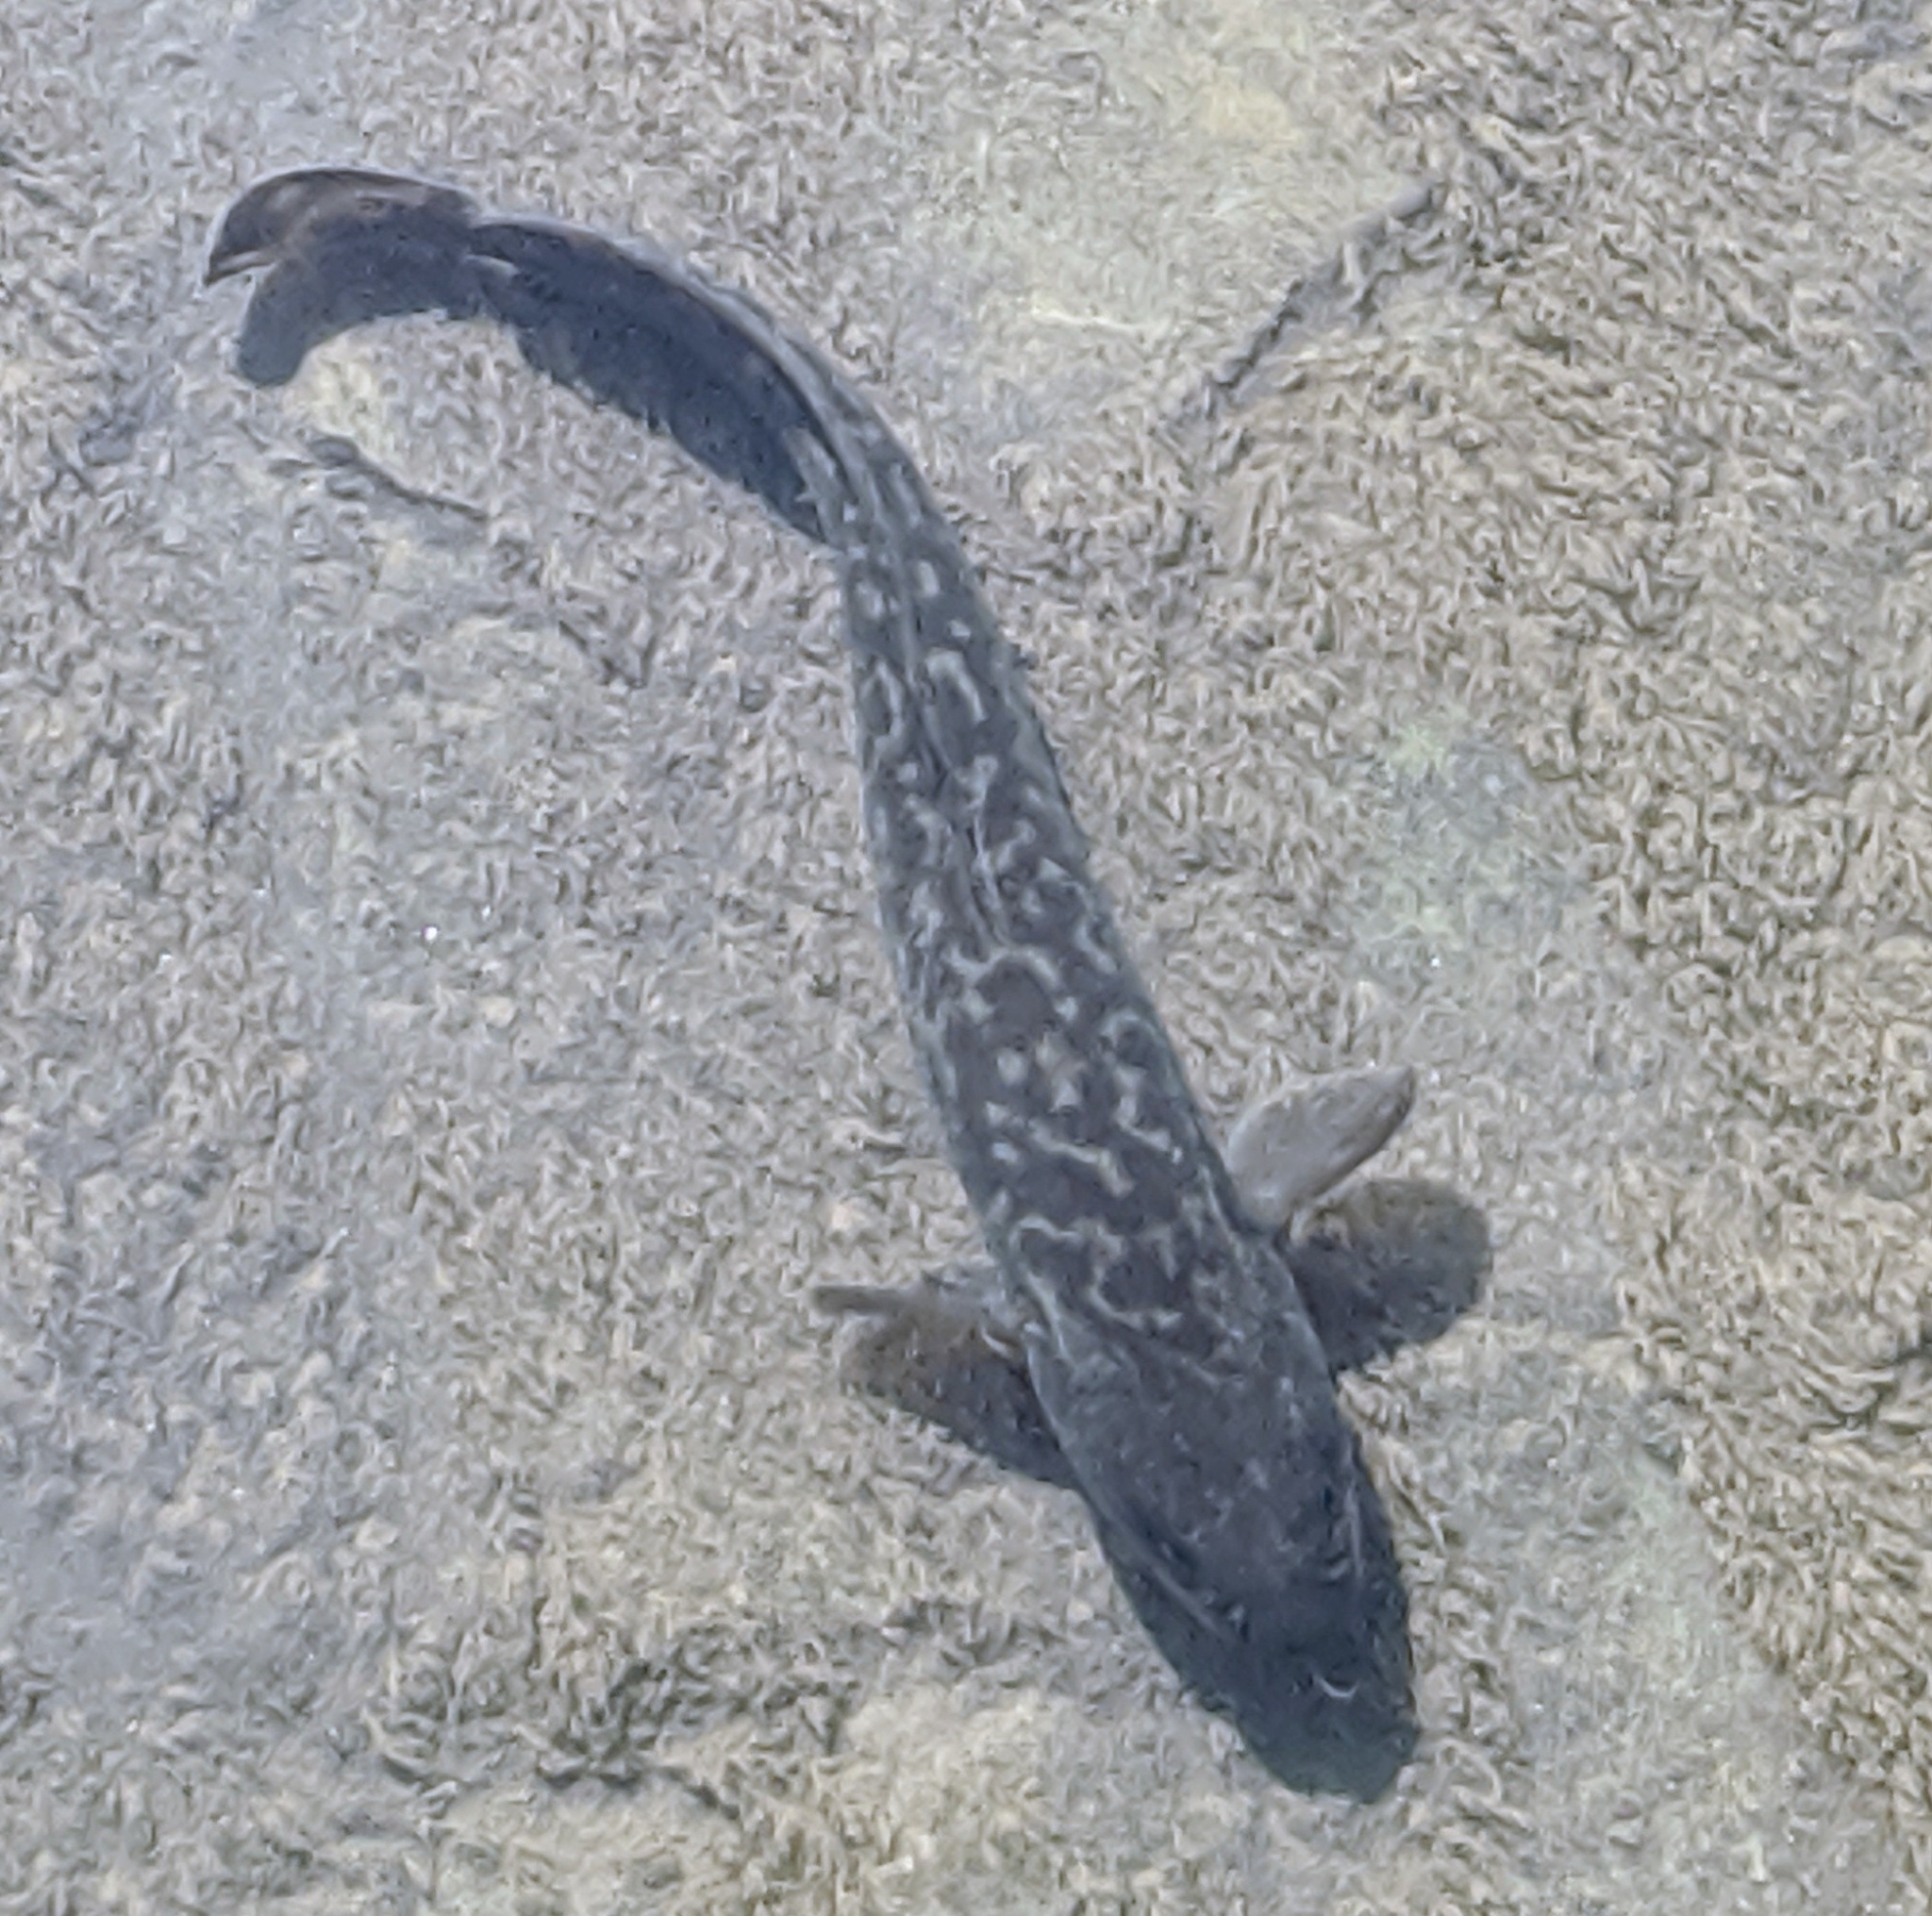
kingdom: Animalia
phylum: Chordata
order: Gadiformes
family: Lotidae
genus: Lota
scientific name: Lota lota
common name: Burbot
